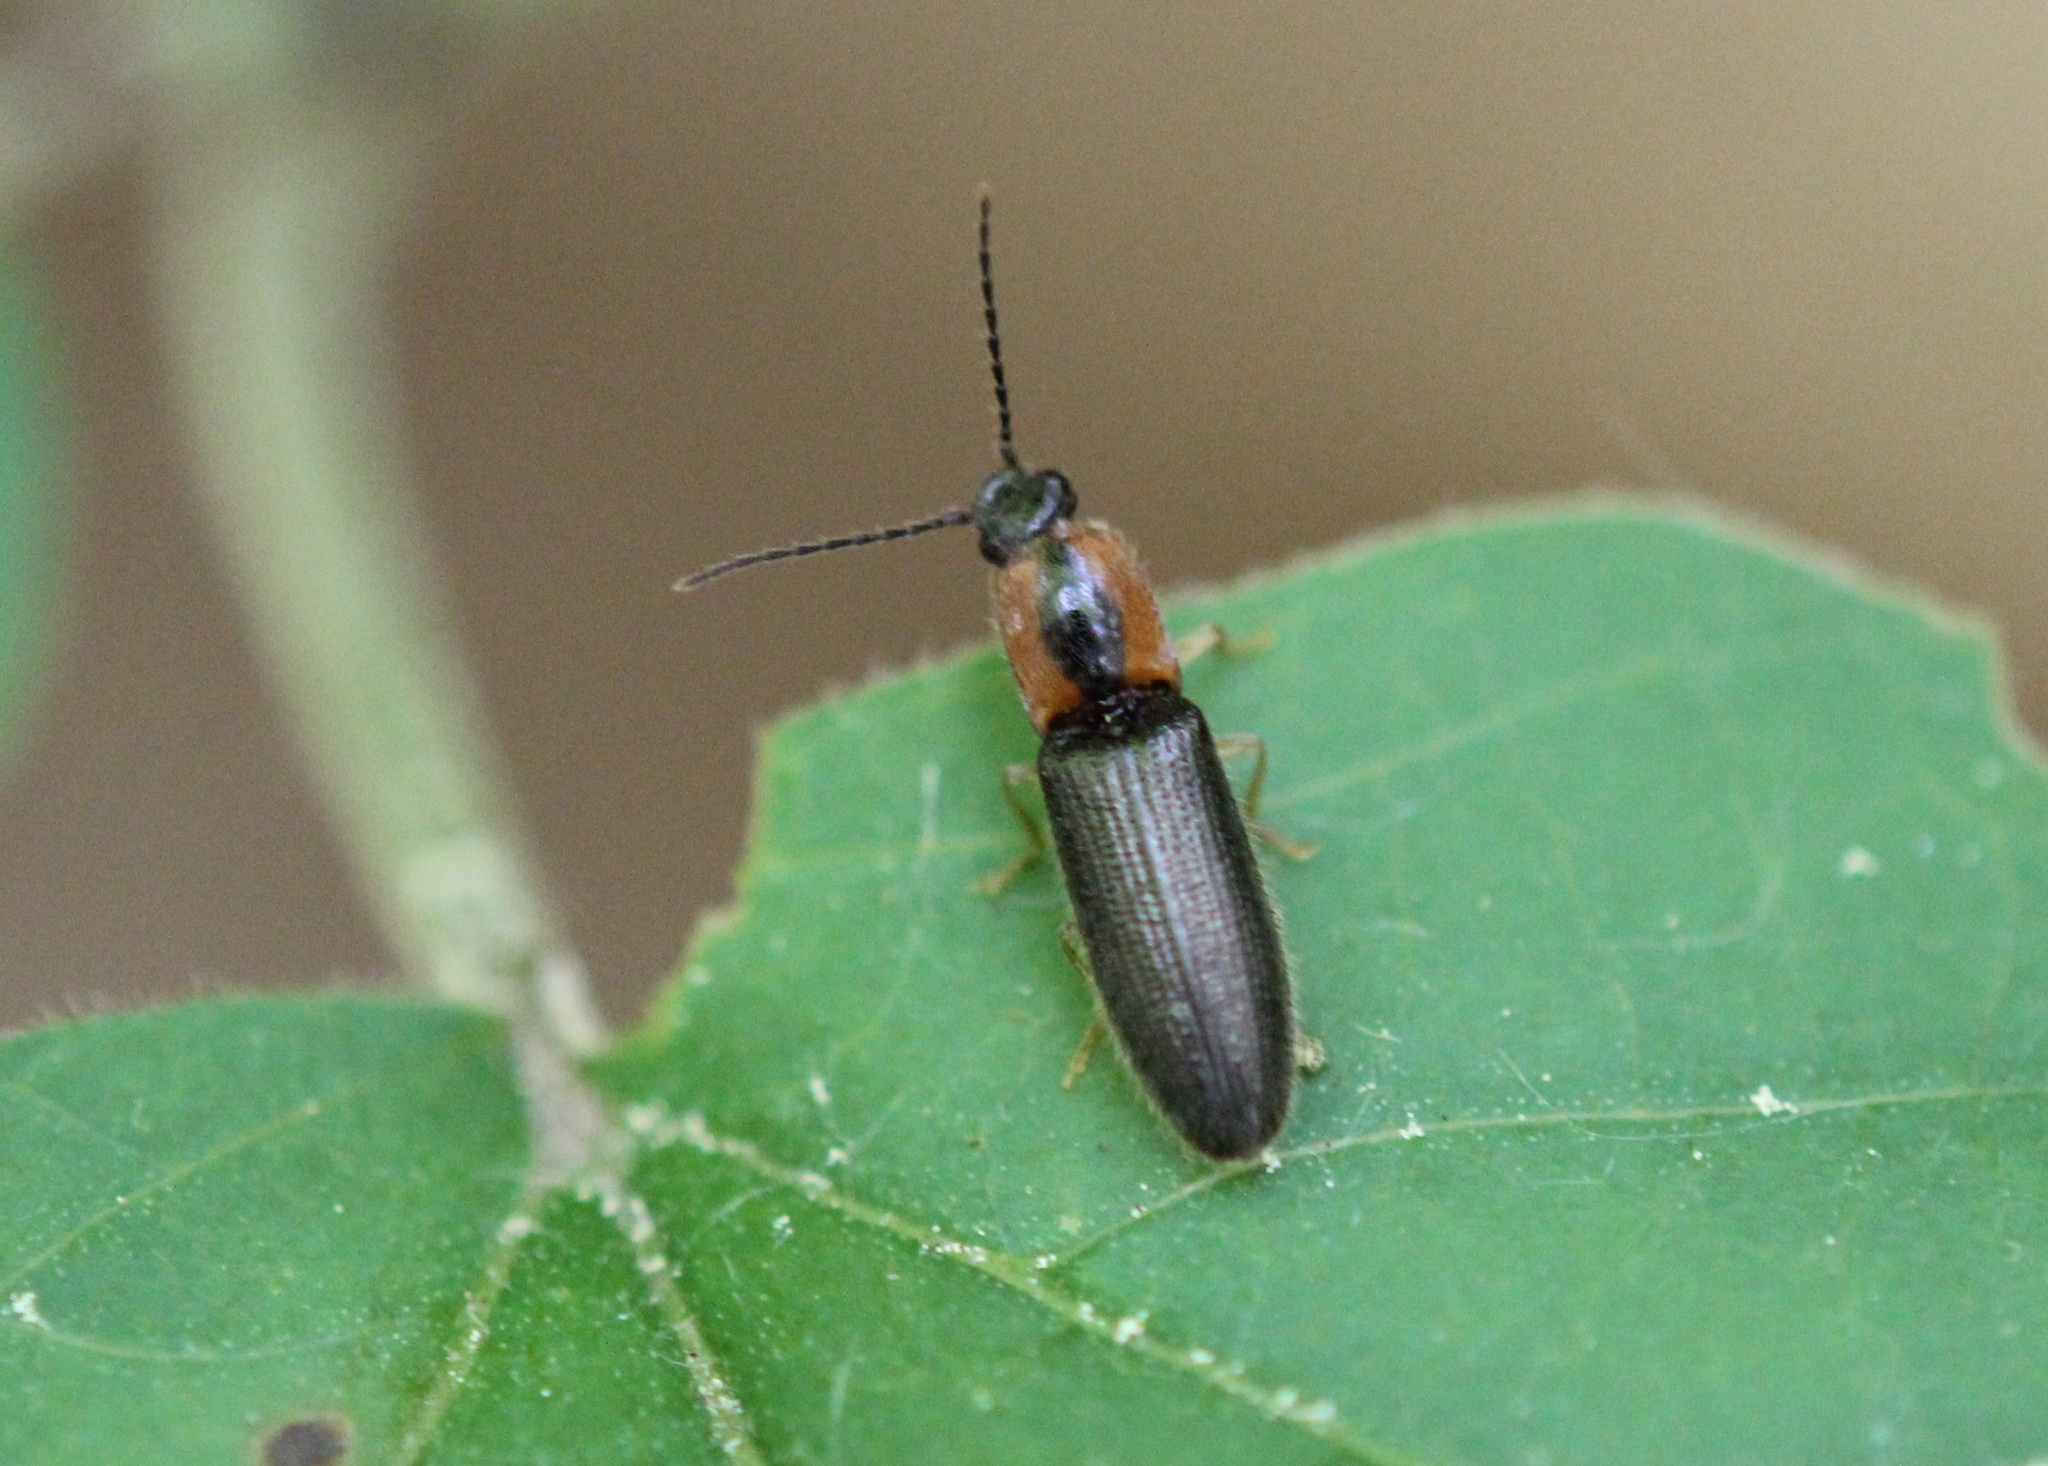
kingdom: Animalia
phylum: Arthropoda
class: Insecta
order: Coleoptera
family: Elateridae
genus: Athous
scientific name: Athous neacanthus
